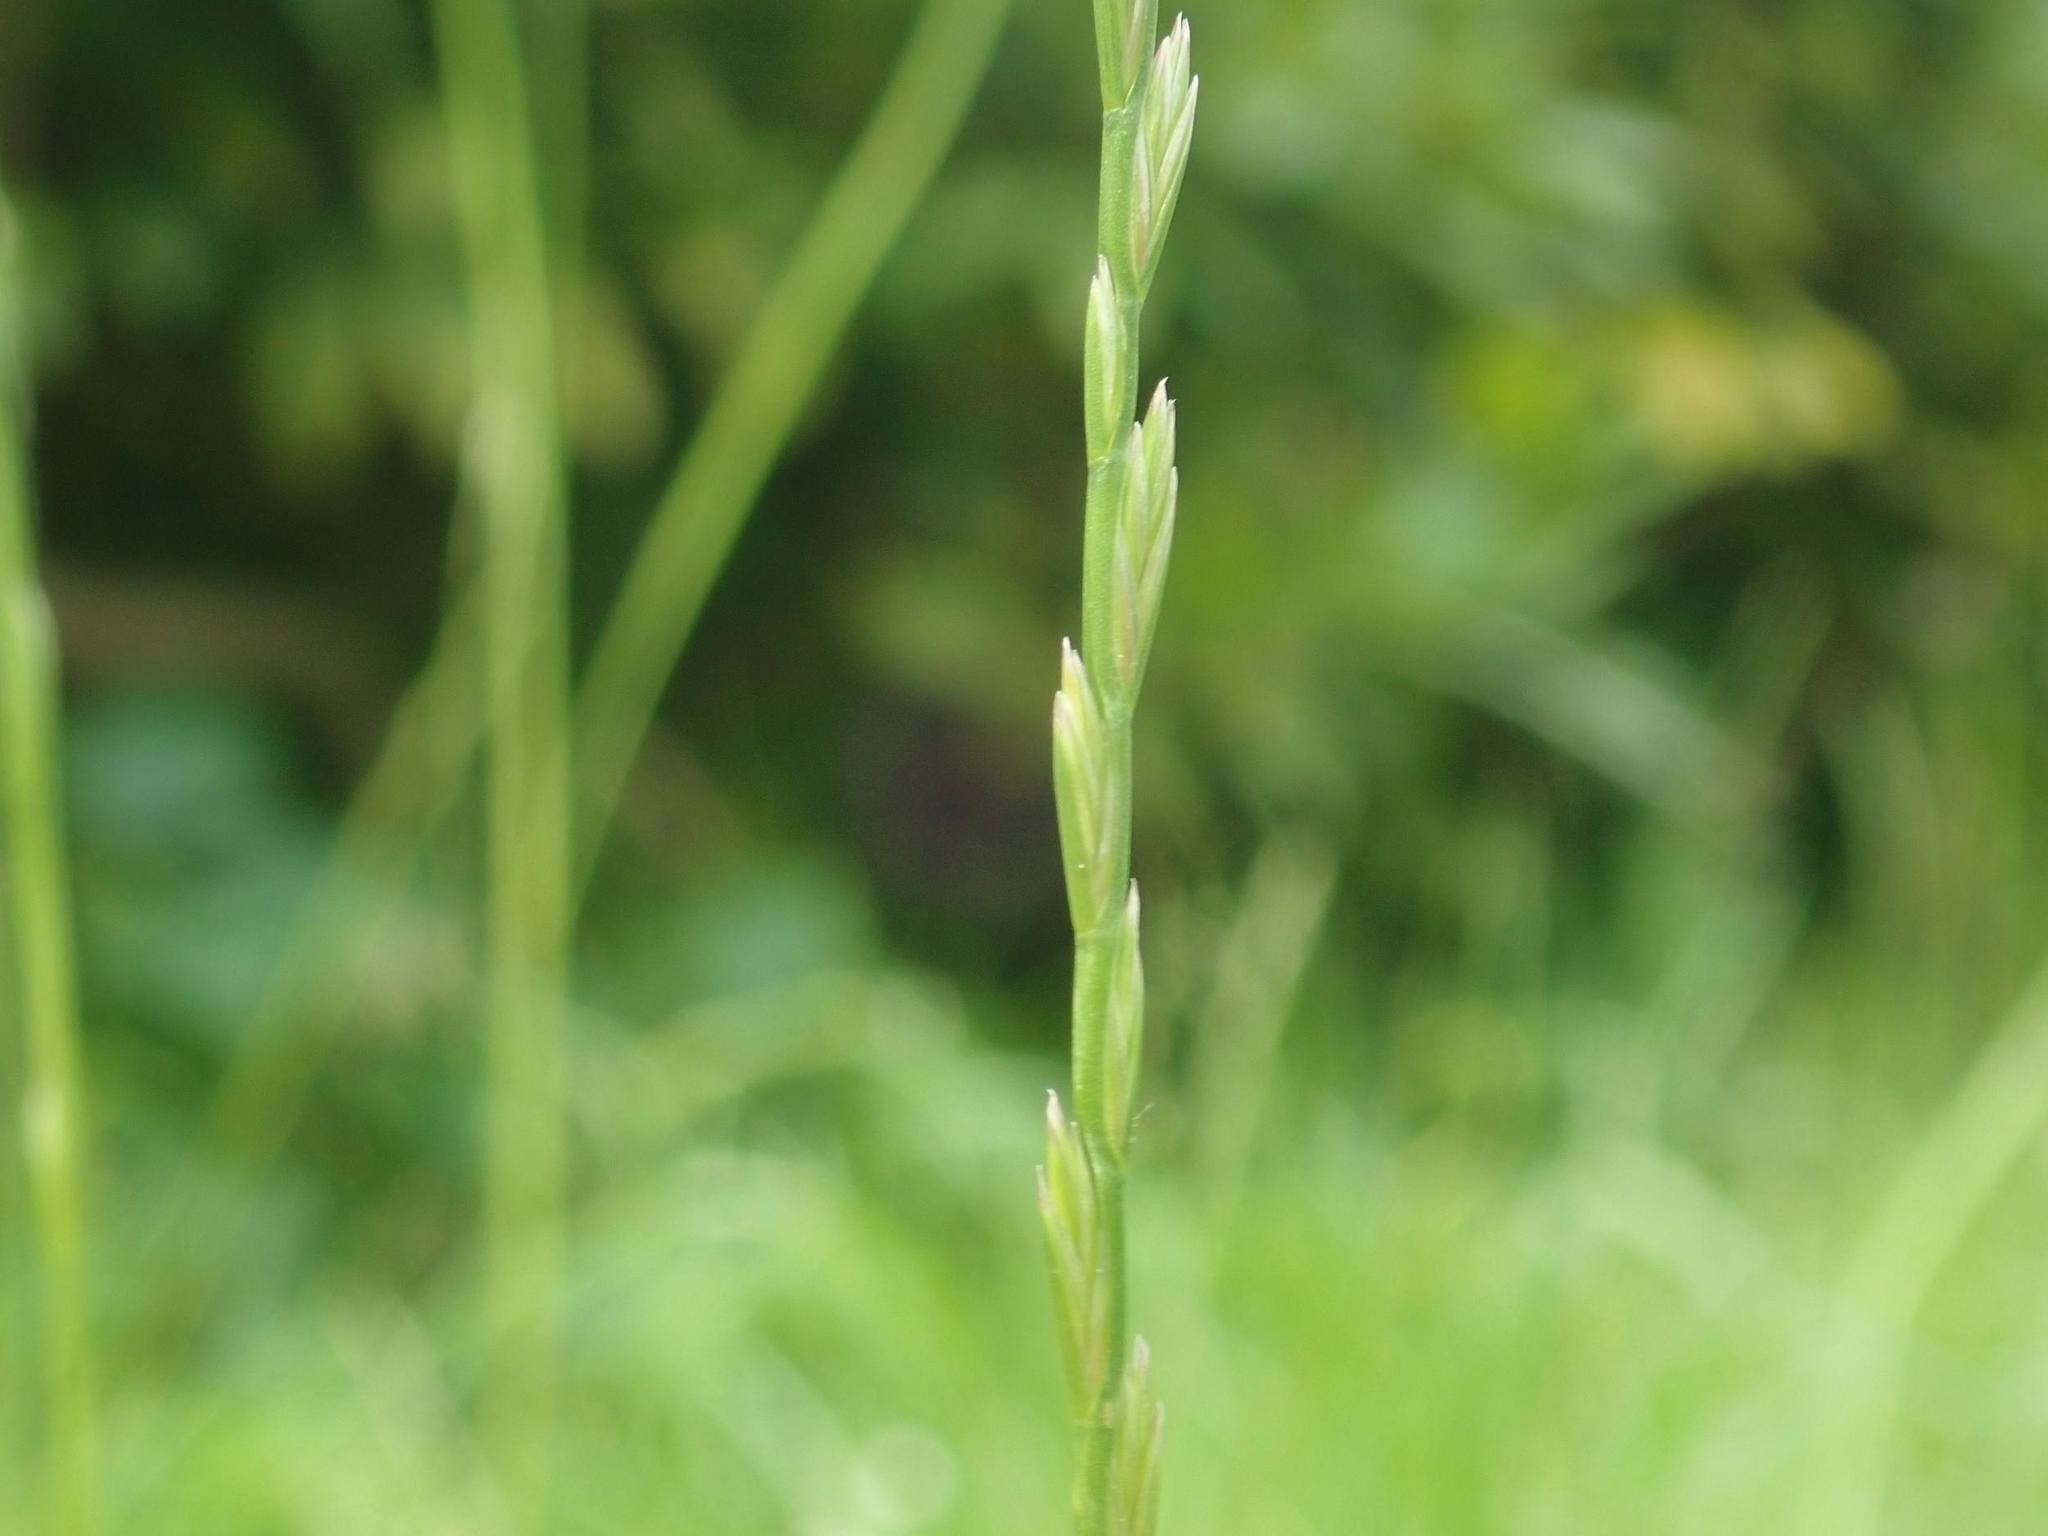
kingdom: Plantae
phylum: Tracheophyta
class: Liliopsida
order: Poales
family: Poaceae
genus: Lolium
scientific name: Lolium perenne
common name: Perennial ryegrass
